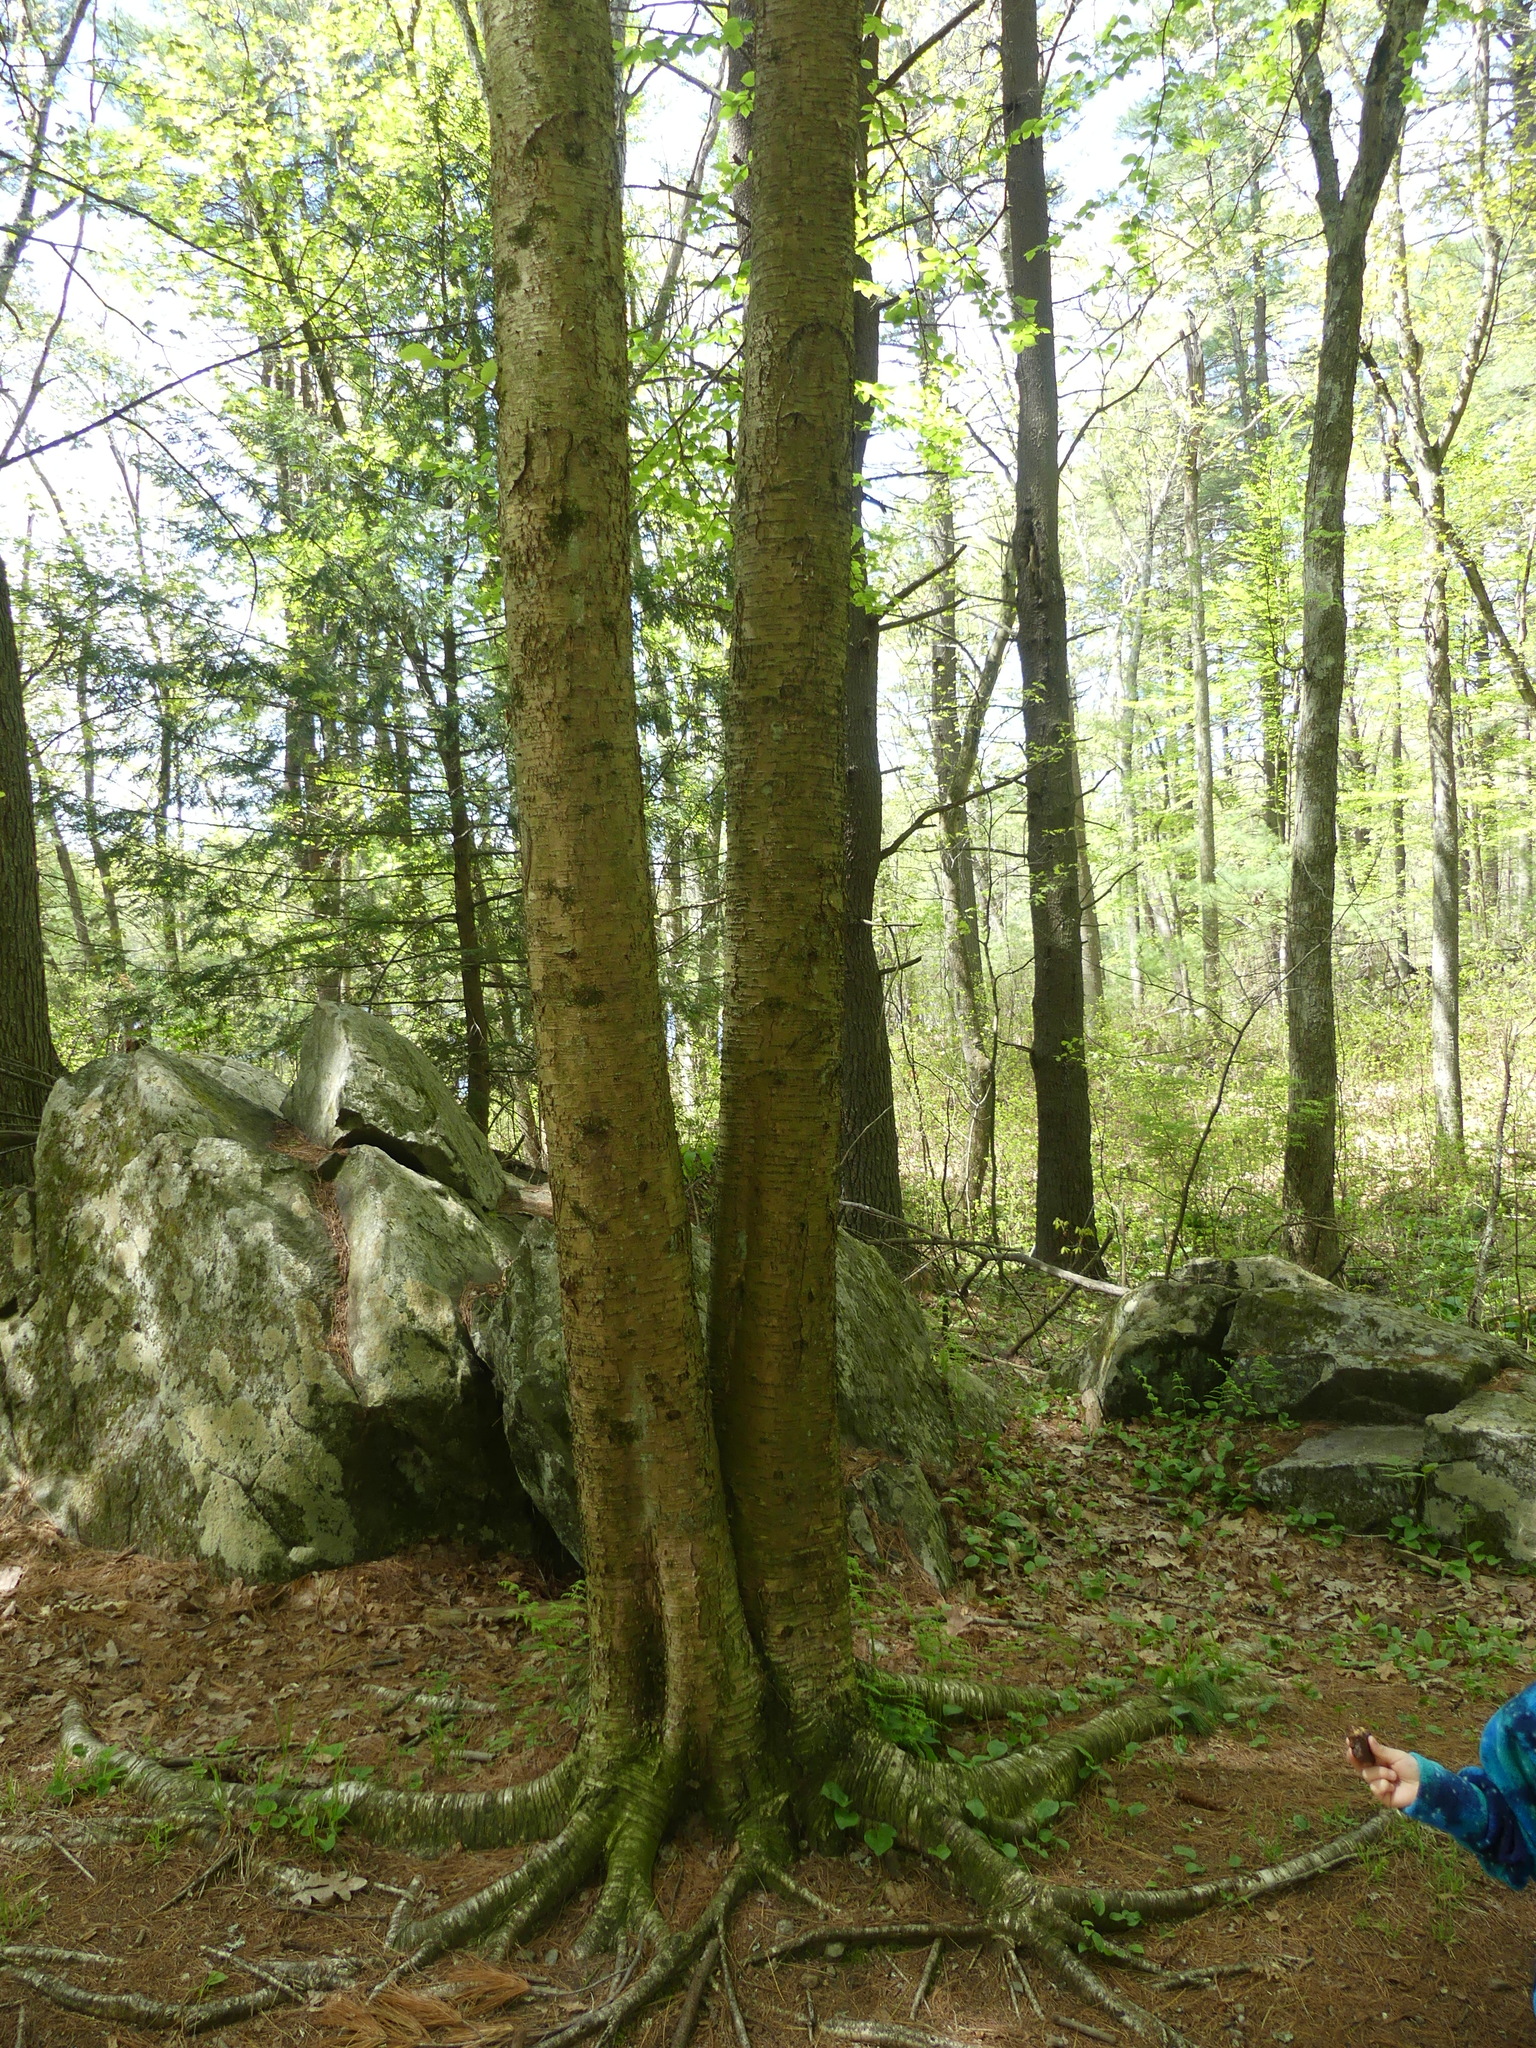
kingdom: Plantae
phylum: Tracheophyta
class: Magnoliopsida
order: Fagales
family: Betulaceae
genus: Betula
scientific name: Betula alleghaniensis
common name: Yellow birch
